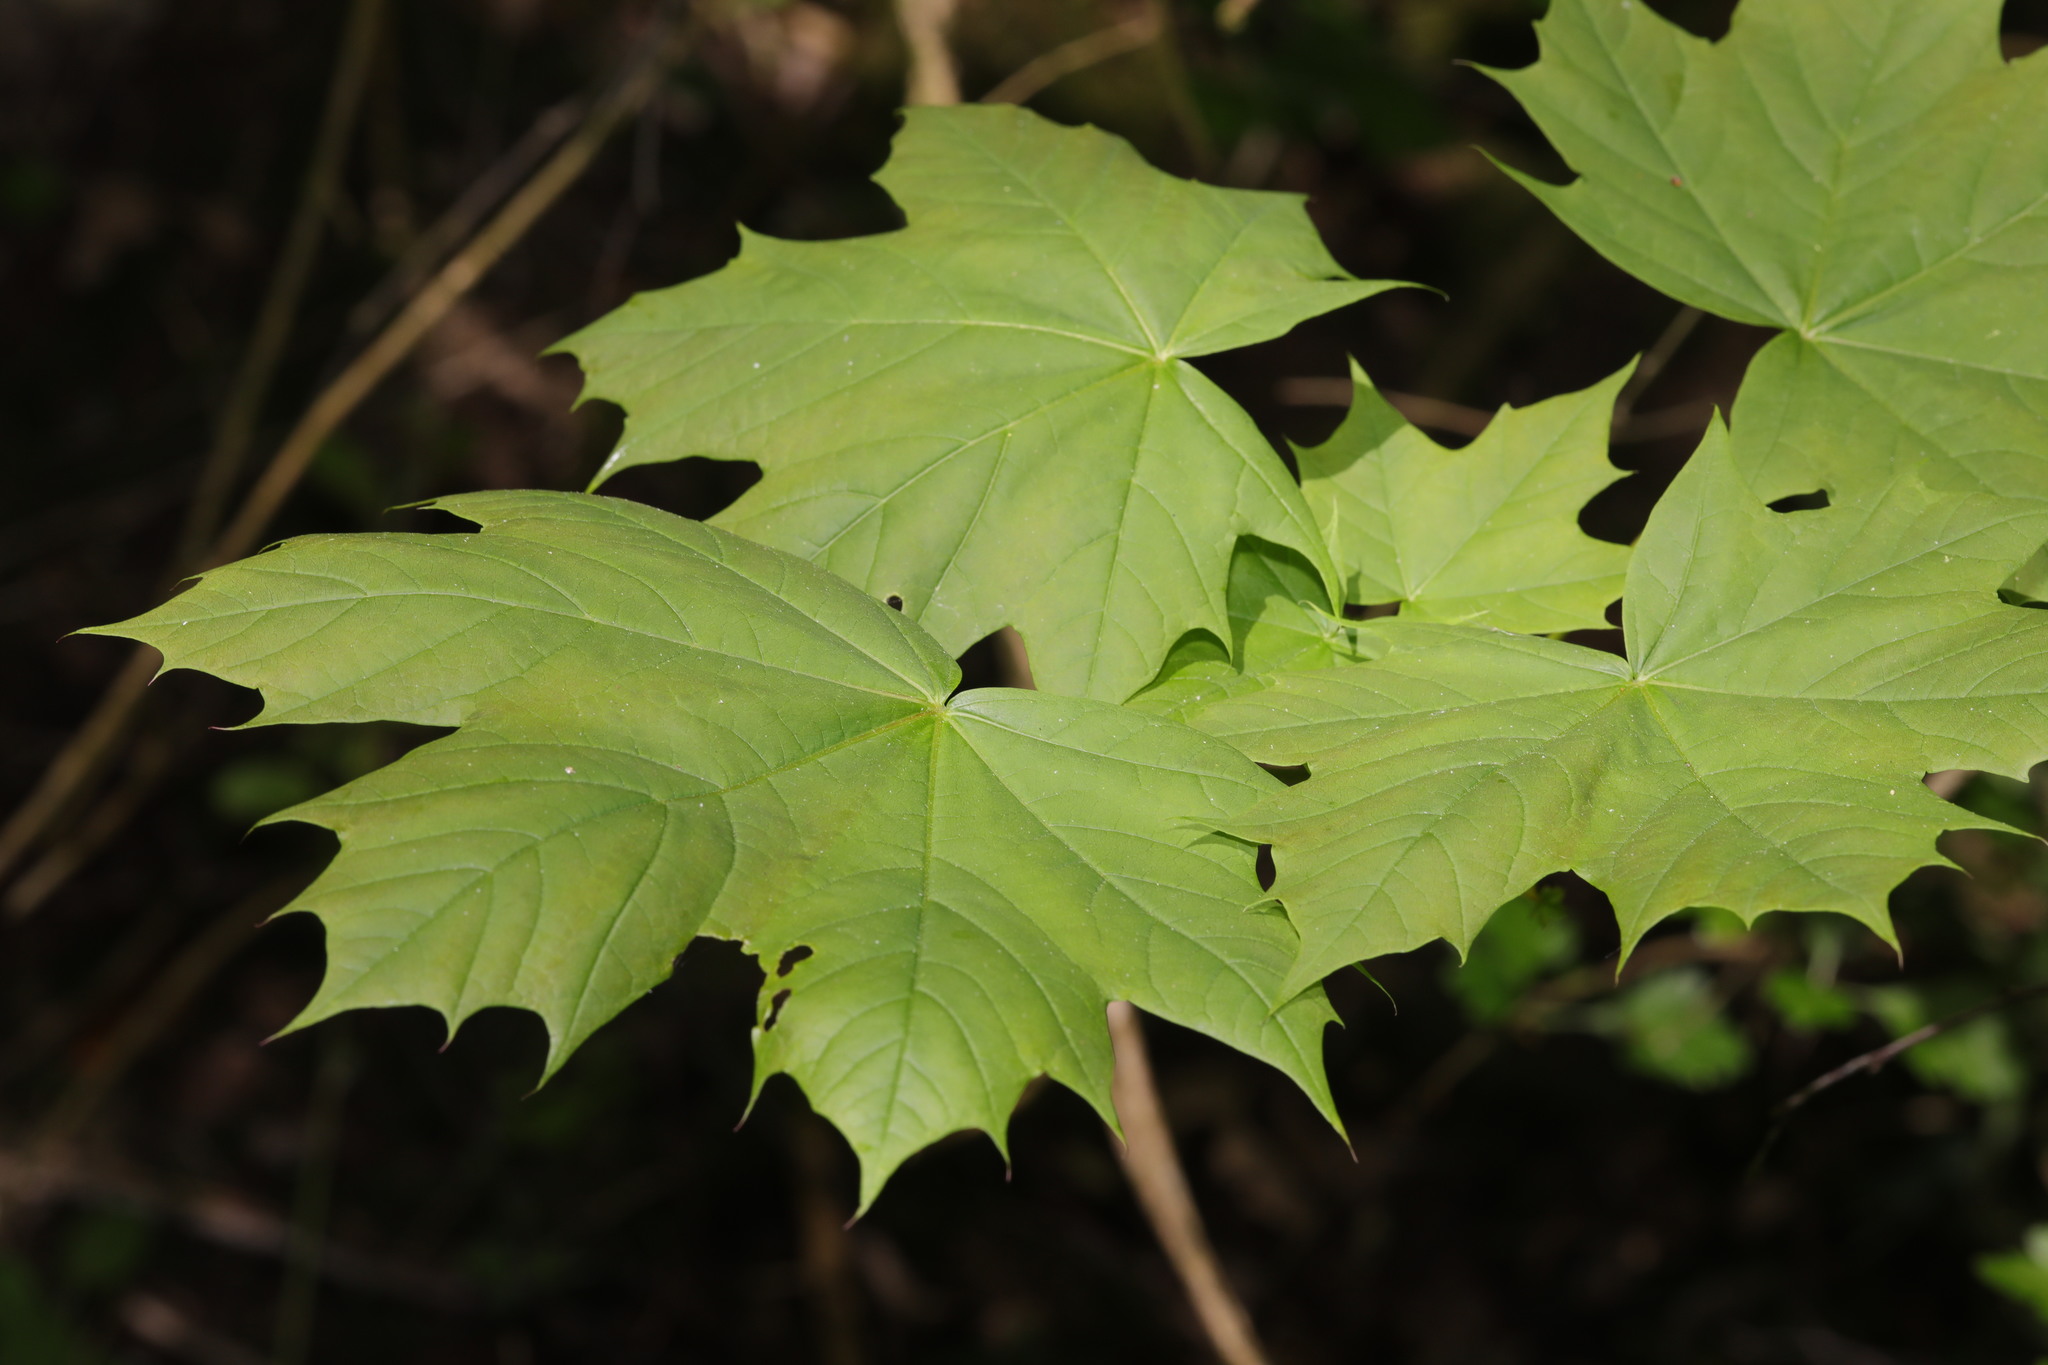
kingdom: Plantae
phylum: Tracheophyta
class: Magnoliopsida
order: Sapindales
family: Sapindaceae
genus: Acer
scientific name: Acer platanoides
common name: Norway maple
